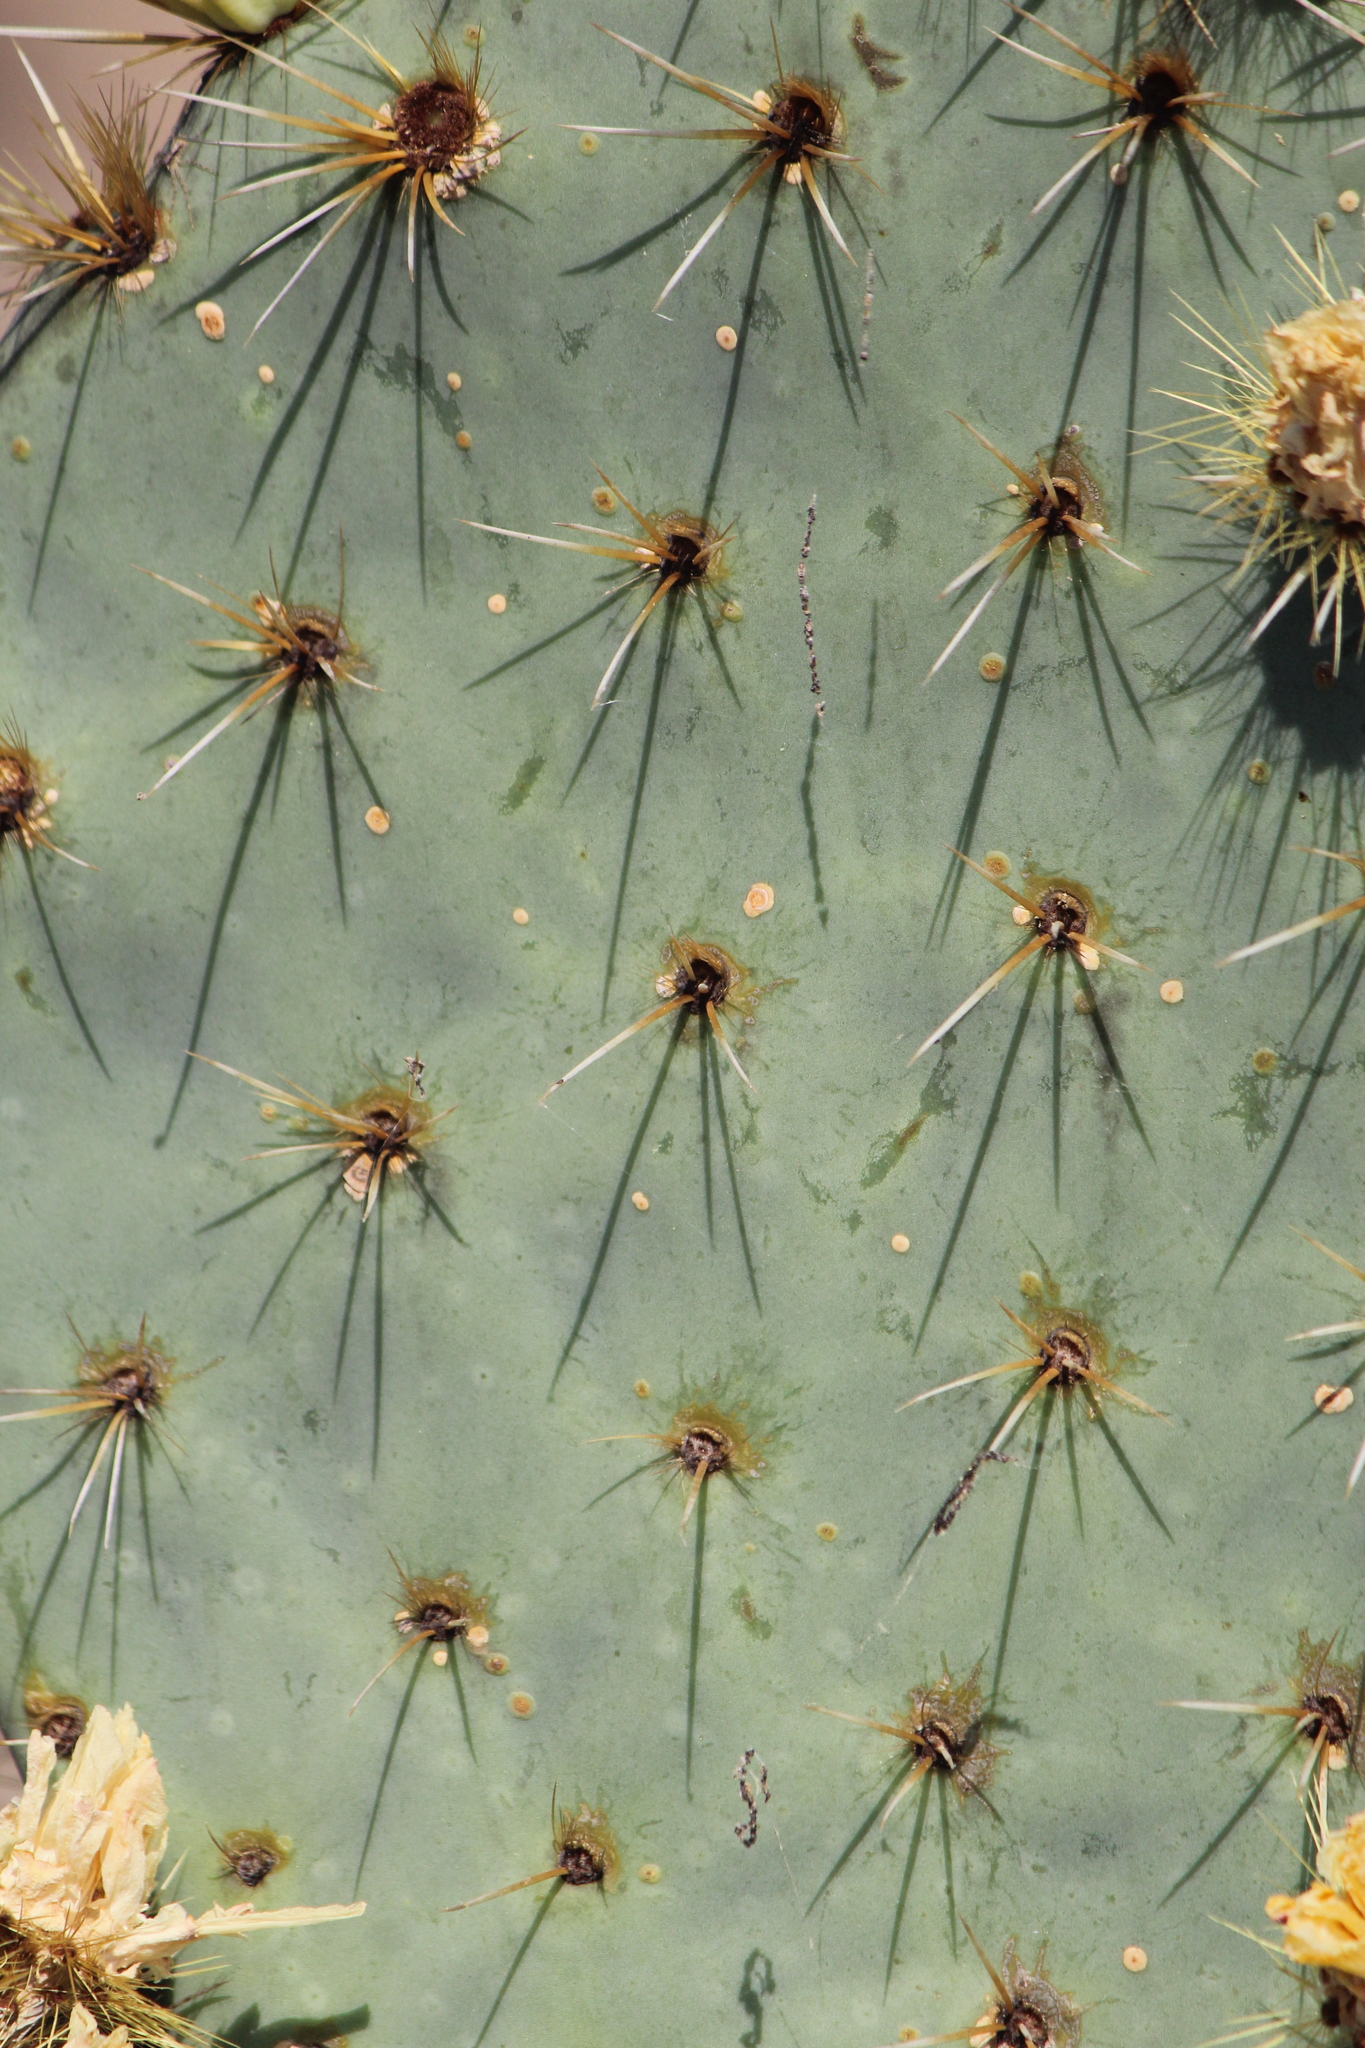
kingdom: Plantae
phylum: Tracheophyta
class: Magnoliopsida
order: Caryophyllales
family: Cactaceae
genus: Opuntia
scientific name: Opuntia robusta
